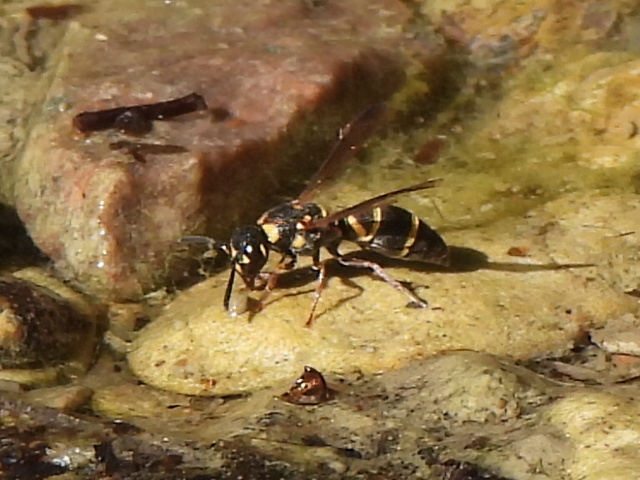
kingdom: Animalia
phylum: Arthropoda
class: Insecta
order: Hymenoptera
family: Eumenidae
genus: Parancistrocerus
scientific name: Parancistrocerus fulvipes
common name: Potter wasp
